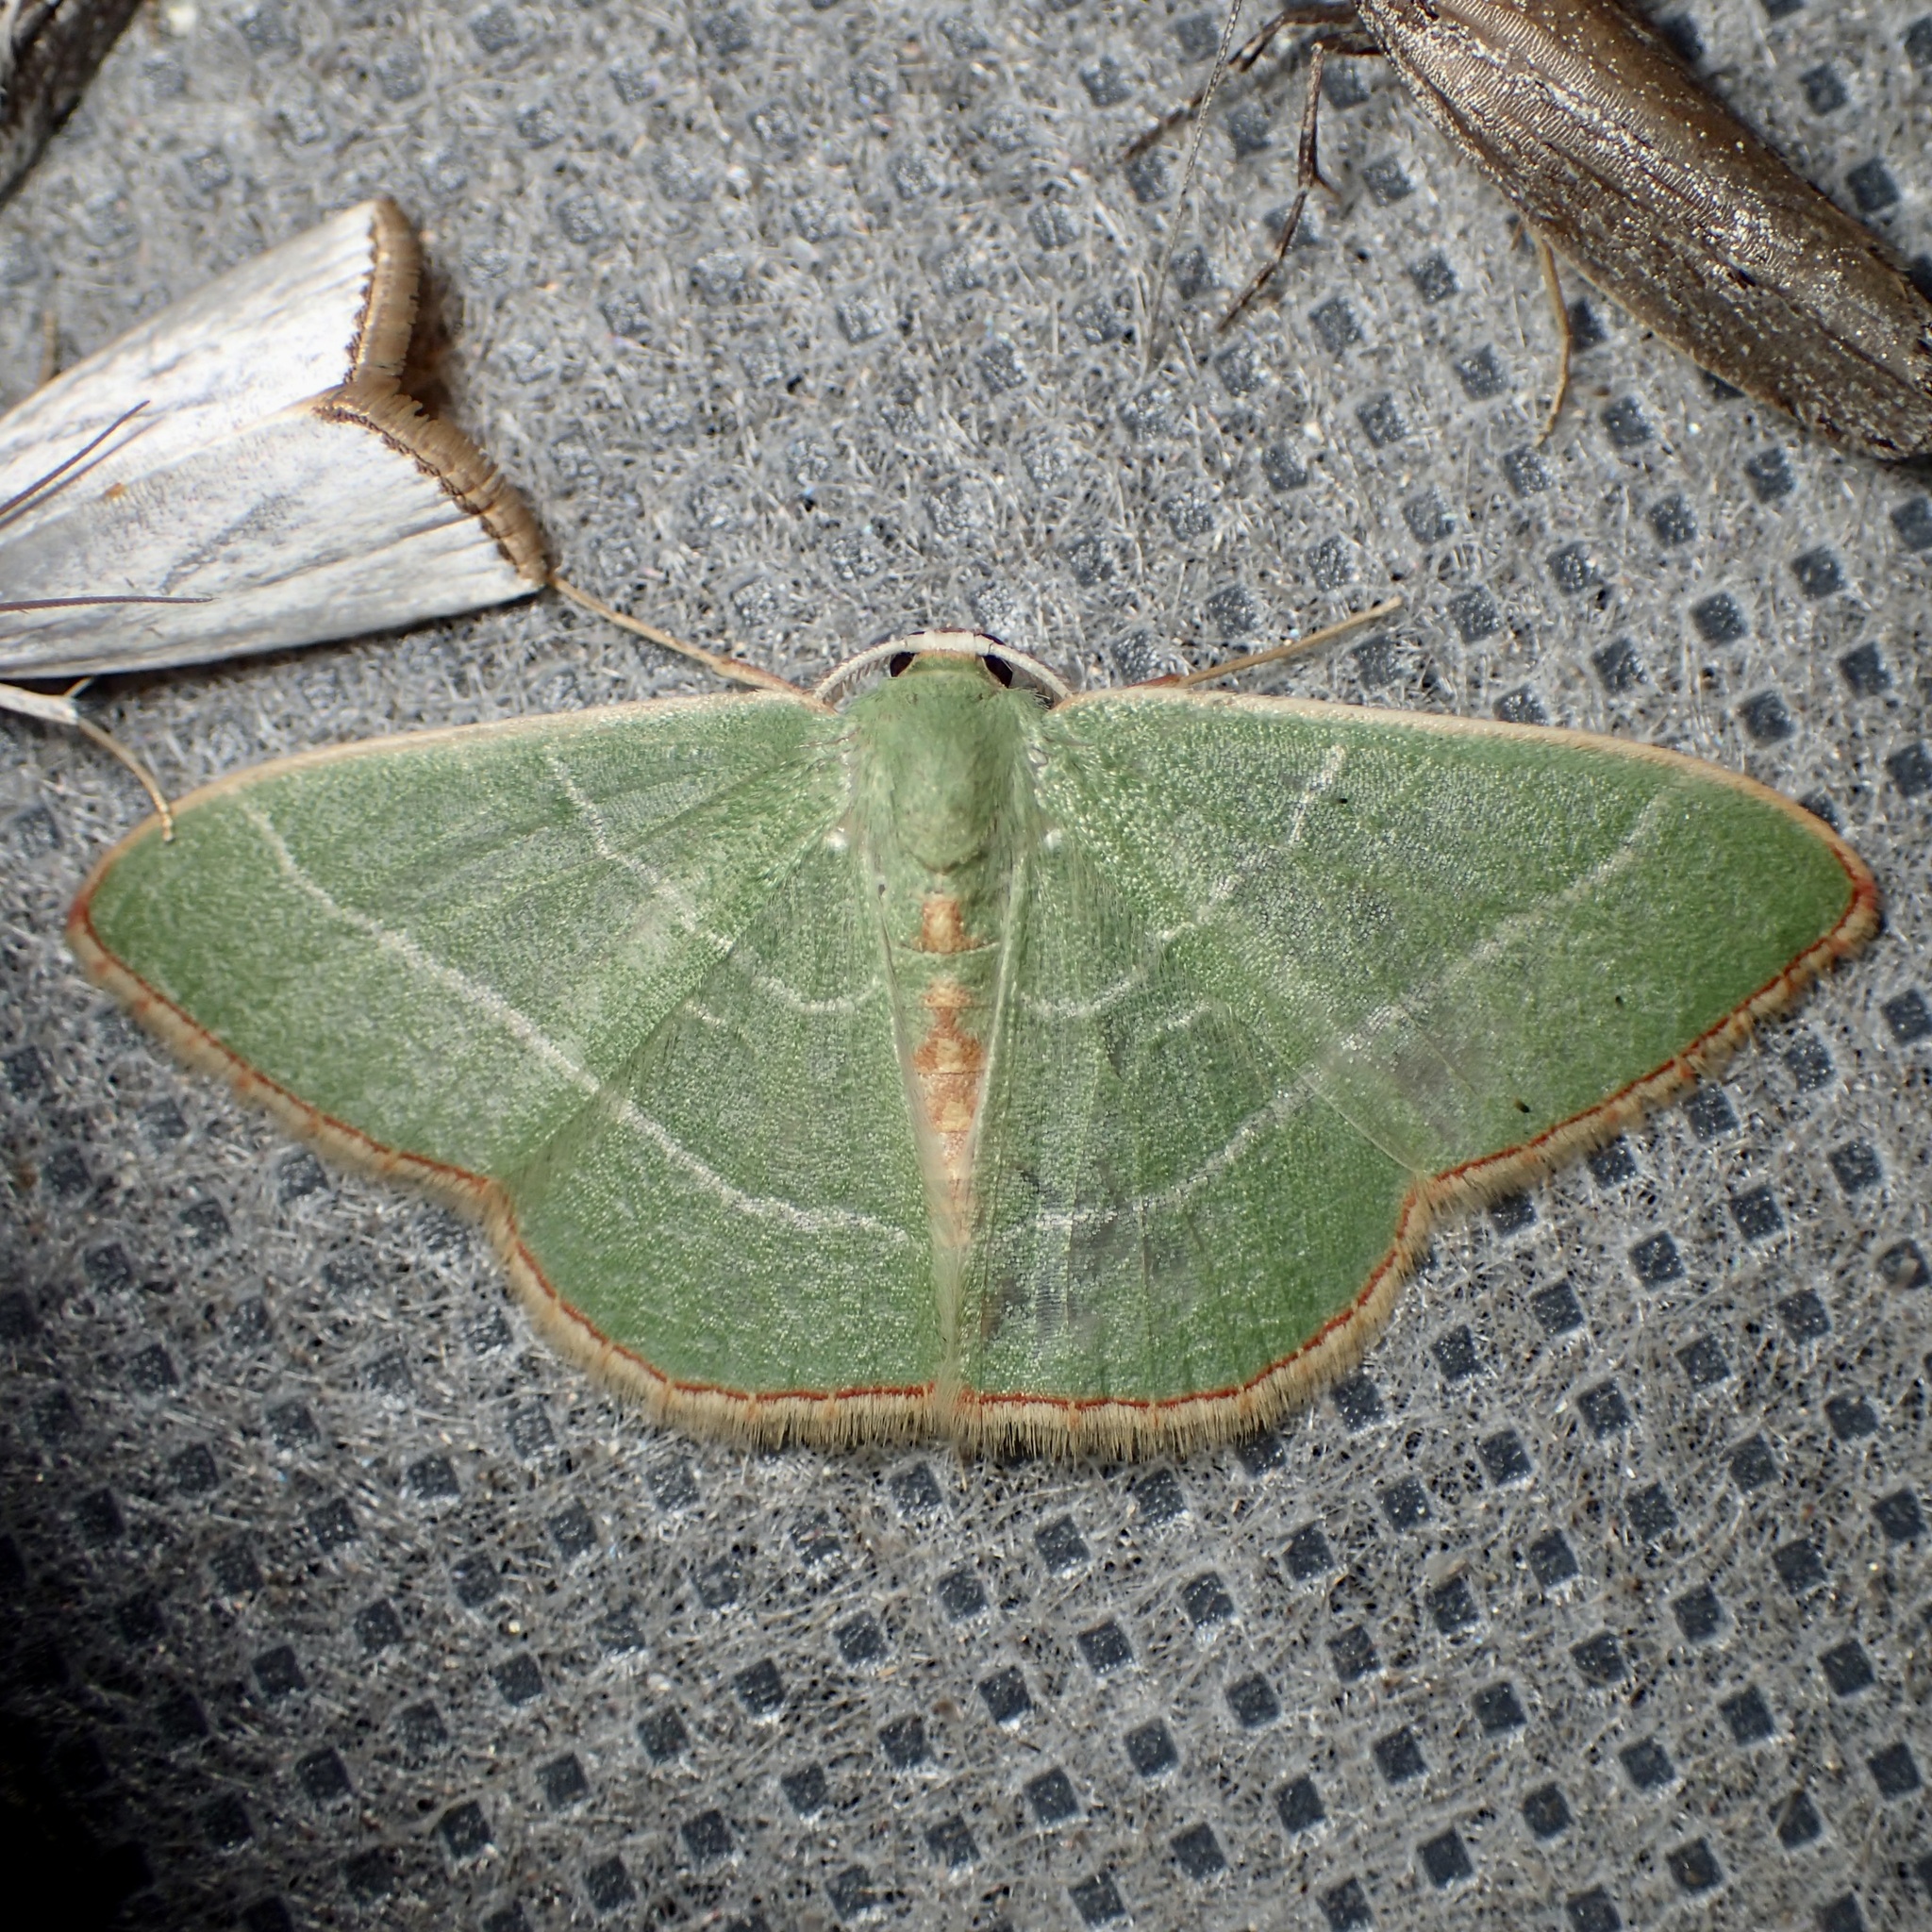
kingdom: Animalia
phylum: Arthropoda
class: Insecta
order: Lepidoptera
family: Geometridae
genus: Nemoria
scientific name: Nemoria festaria
